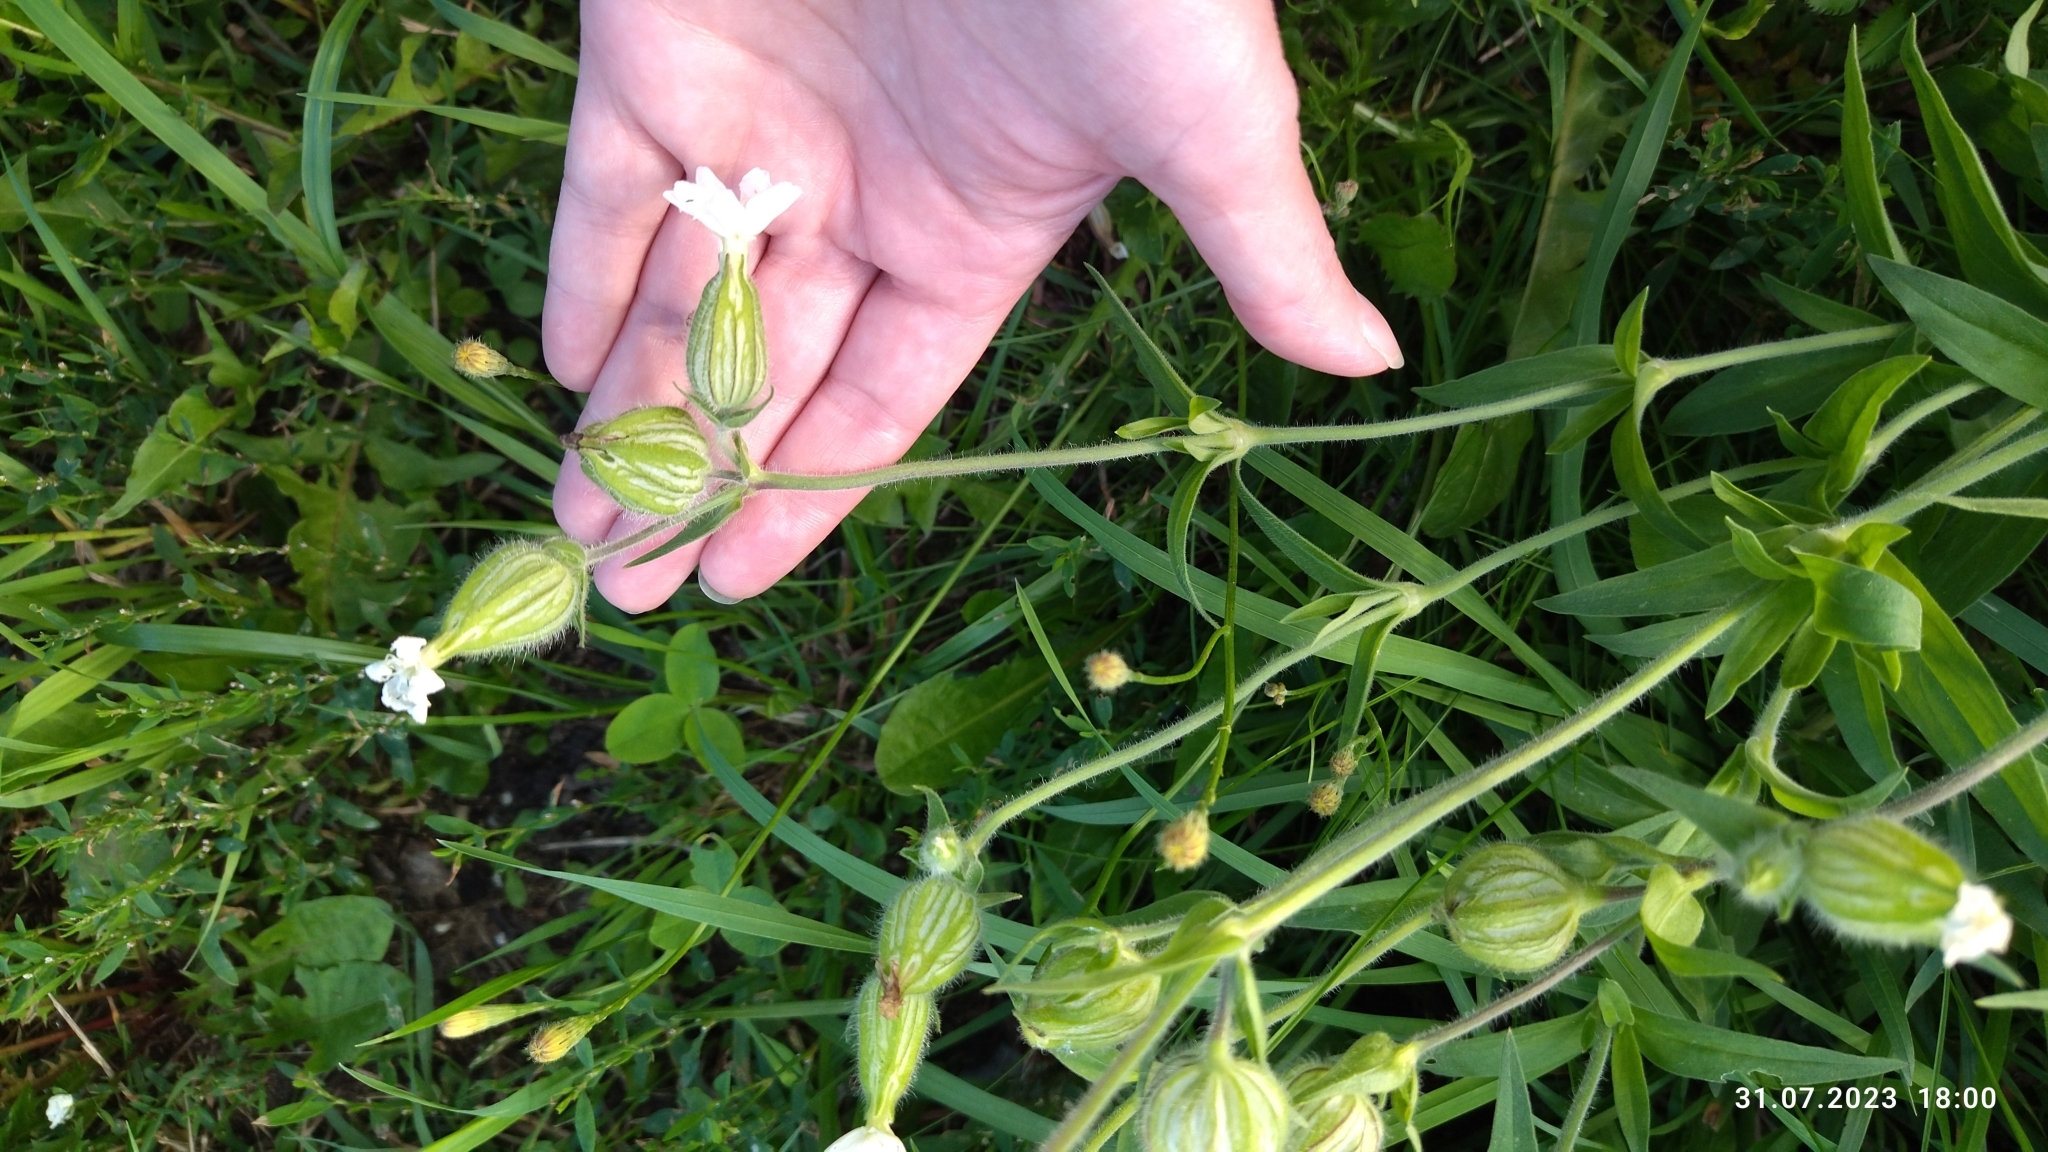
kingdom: Plantae
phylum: Tracheophyta
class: Magnoliopsida
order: Caryophyllales
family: Caryophyllaceae
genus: Silene
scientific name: Silene latifolia
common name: White campion
